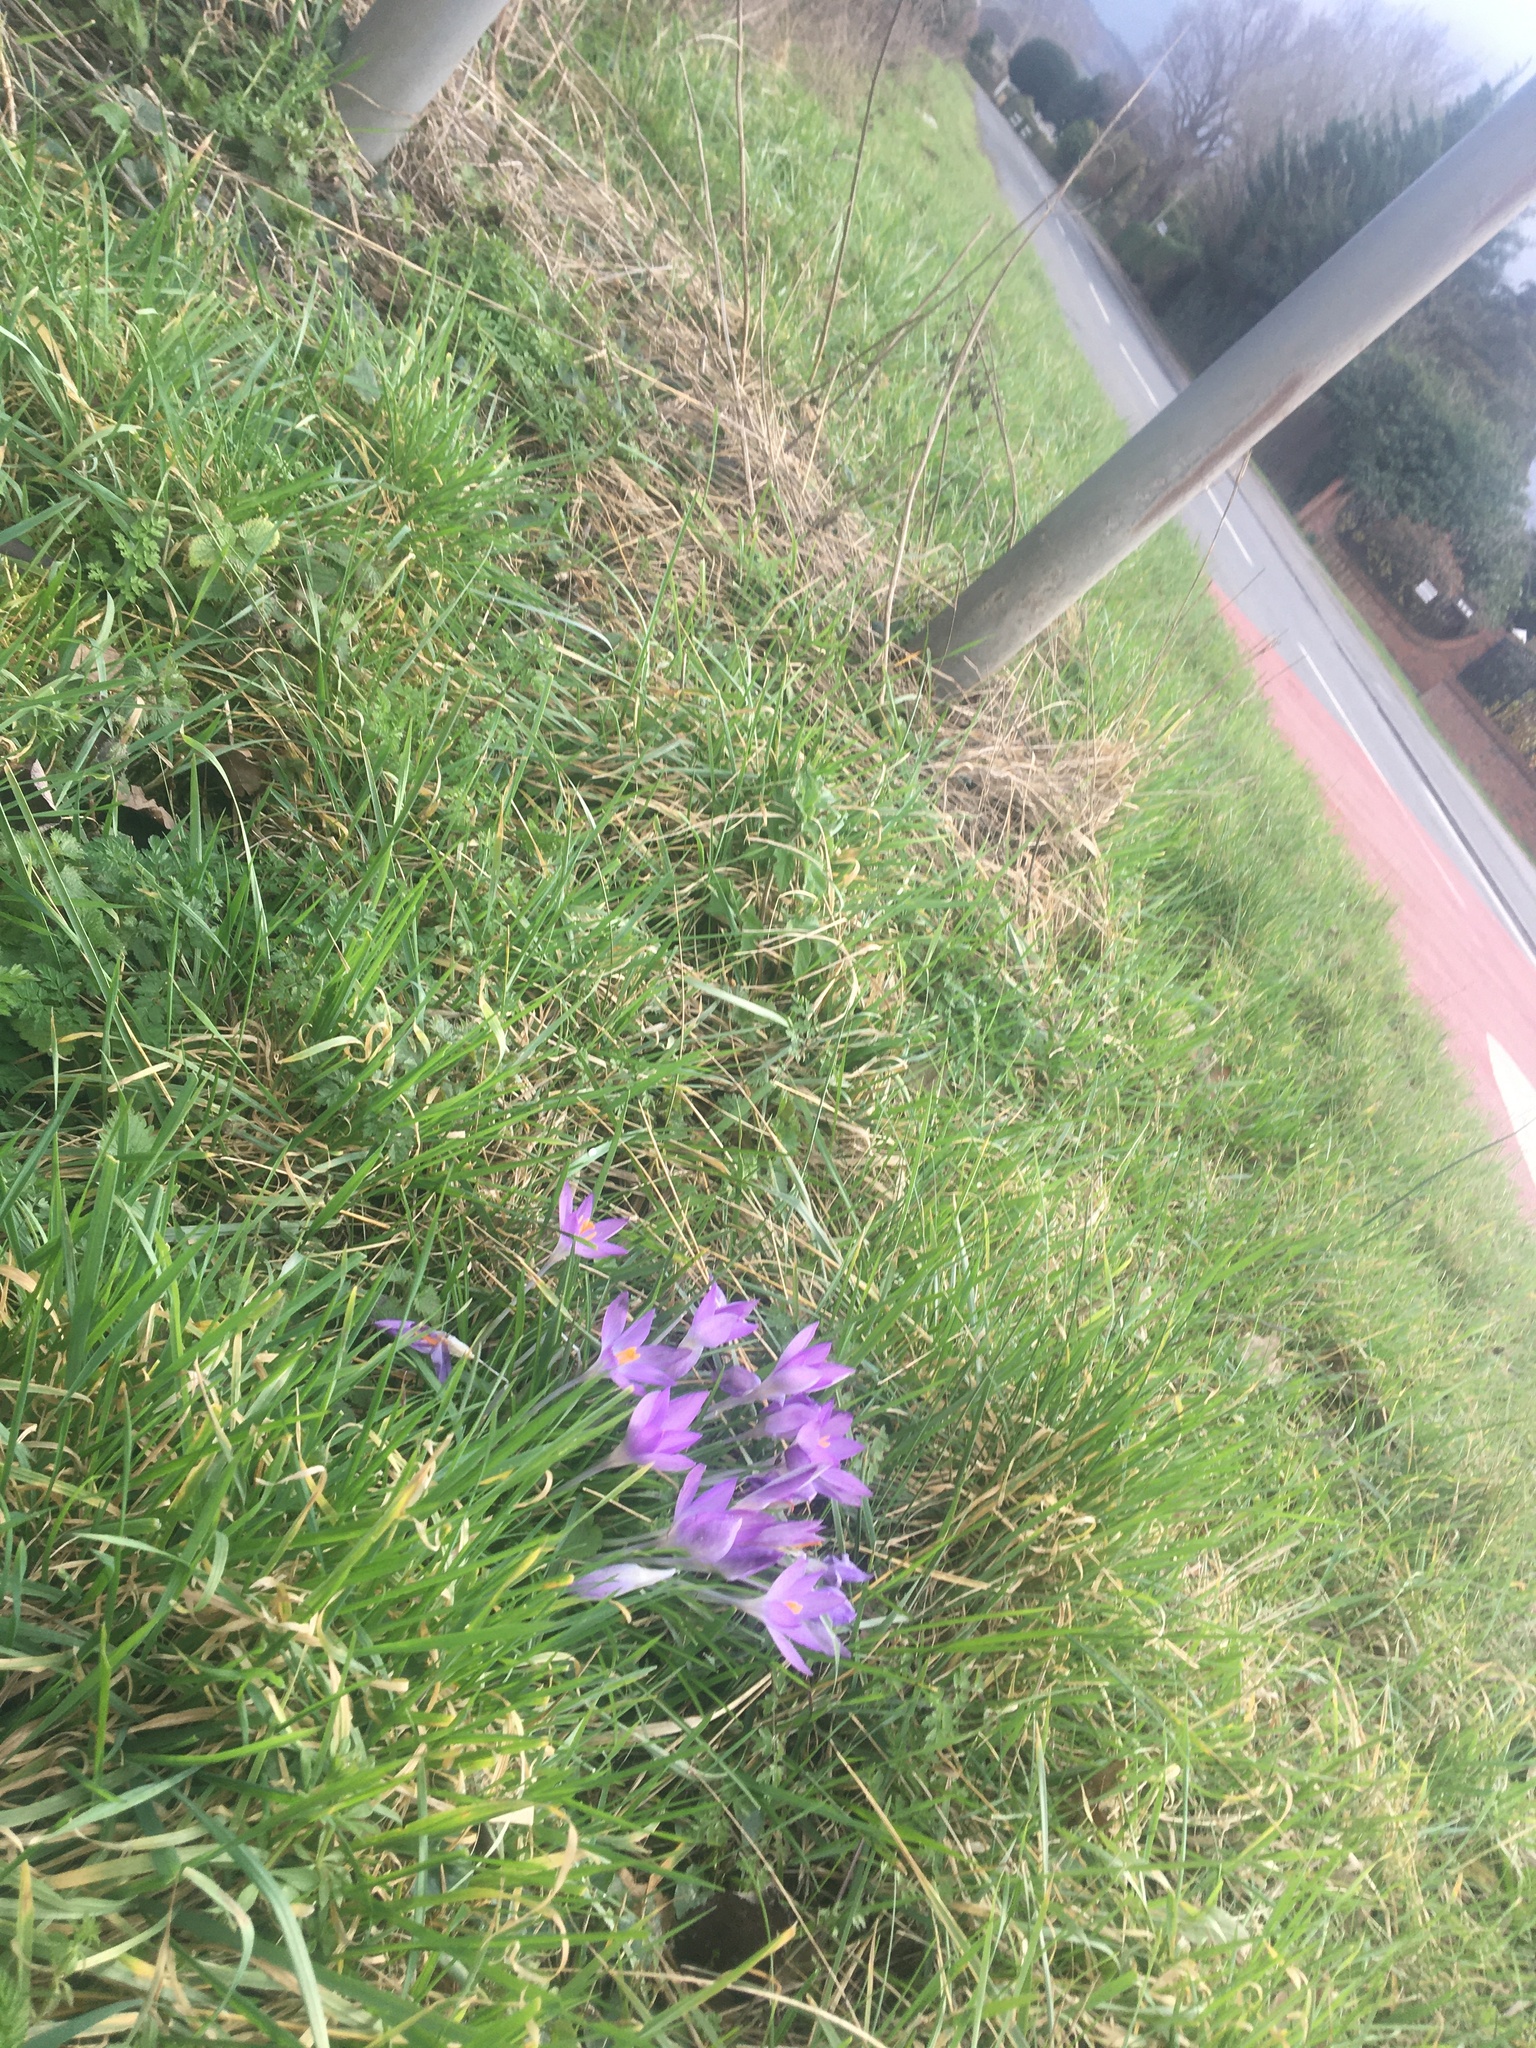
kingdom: Plantae
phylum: Tracheophyta
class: Liliopsida
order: Asparagales
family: Iridaceae
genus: Crocus
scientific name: Crocus tommasinianus
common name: Early crocus
